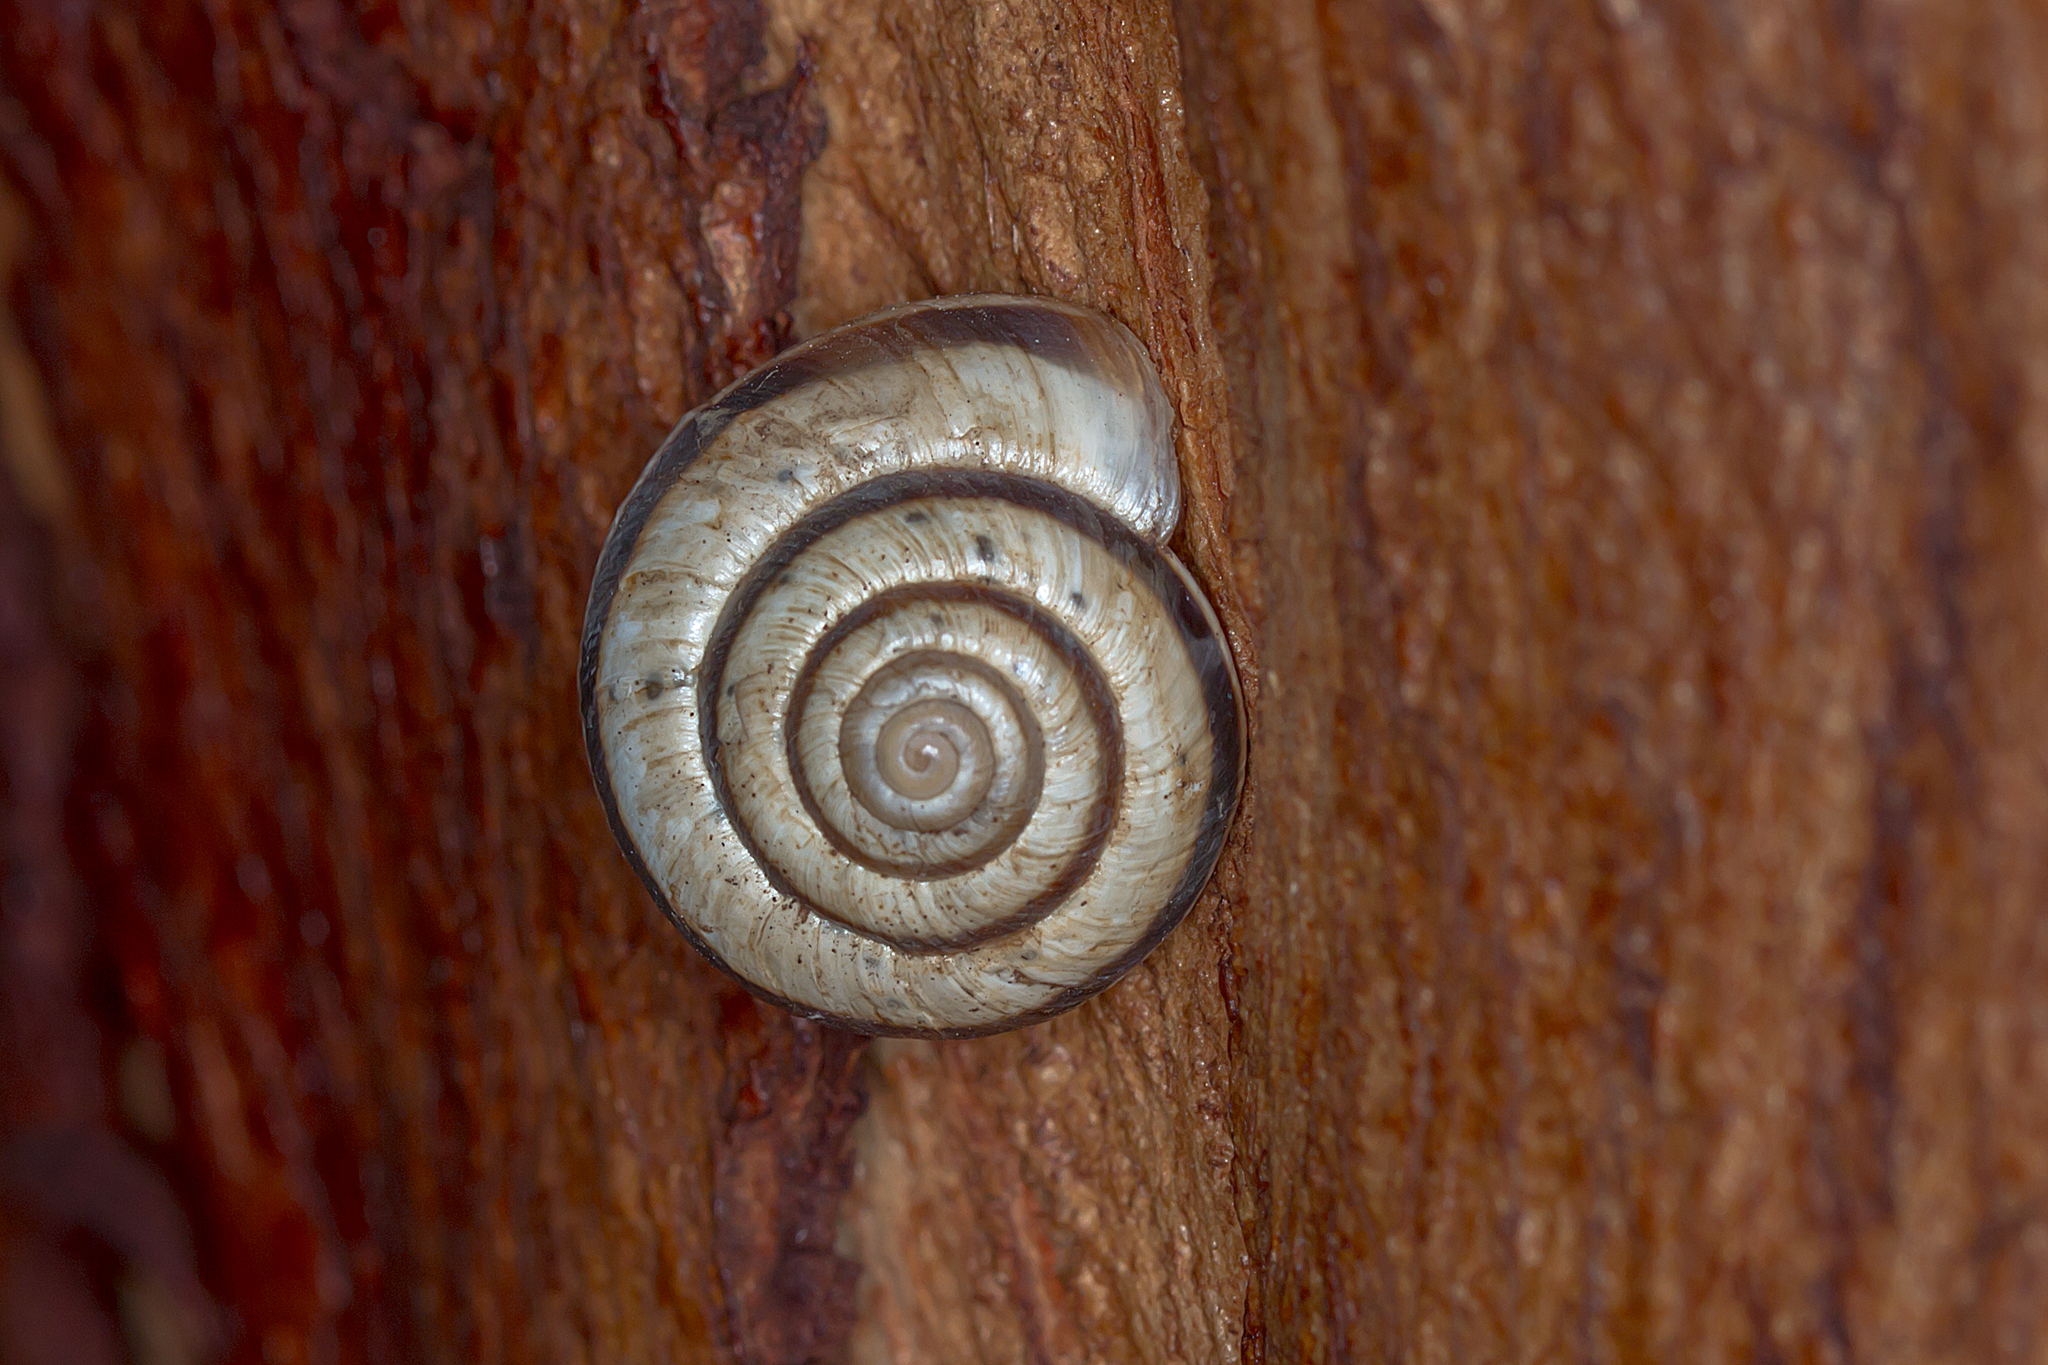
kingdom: Animalia
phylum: Mollusca
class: Gastropoda
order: Stylommatophora
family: Geomitridae
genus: Cernuella
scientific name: Cernuella virgata
